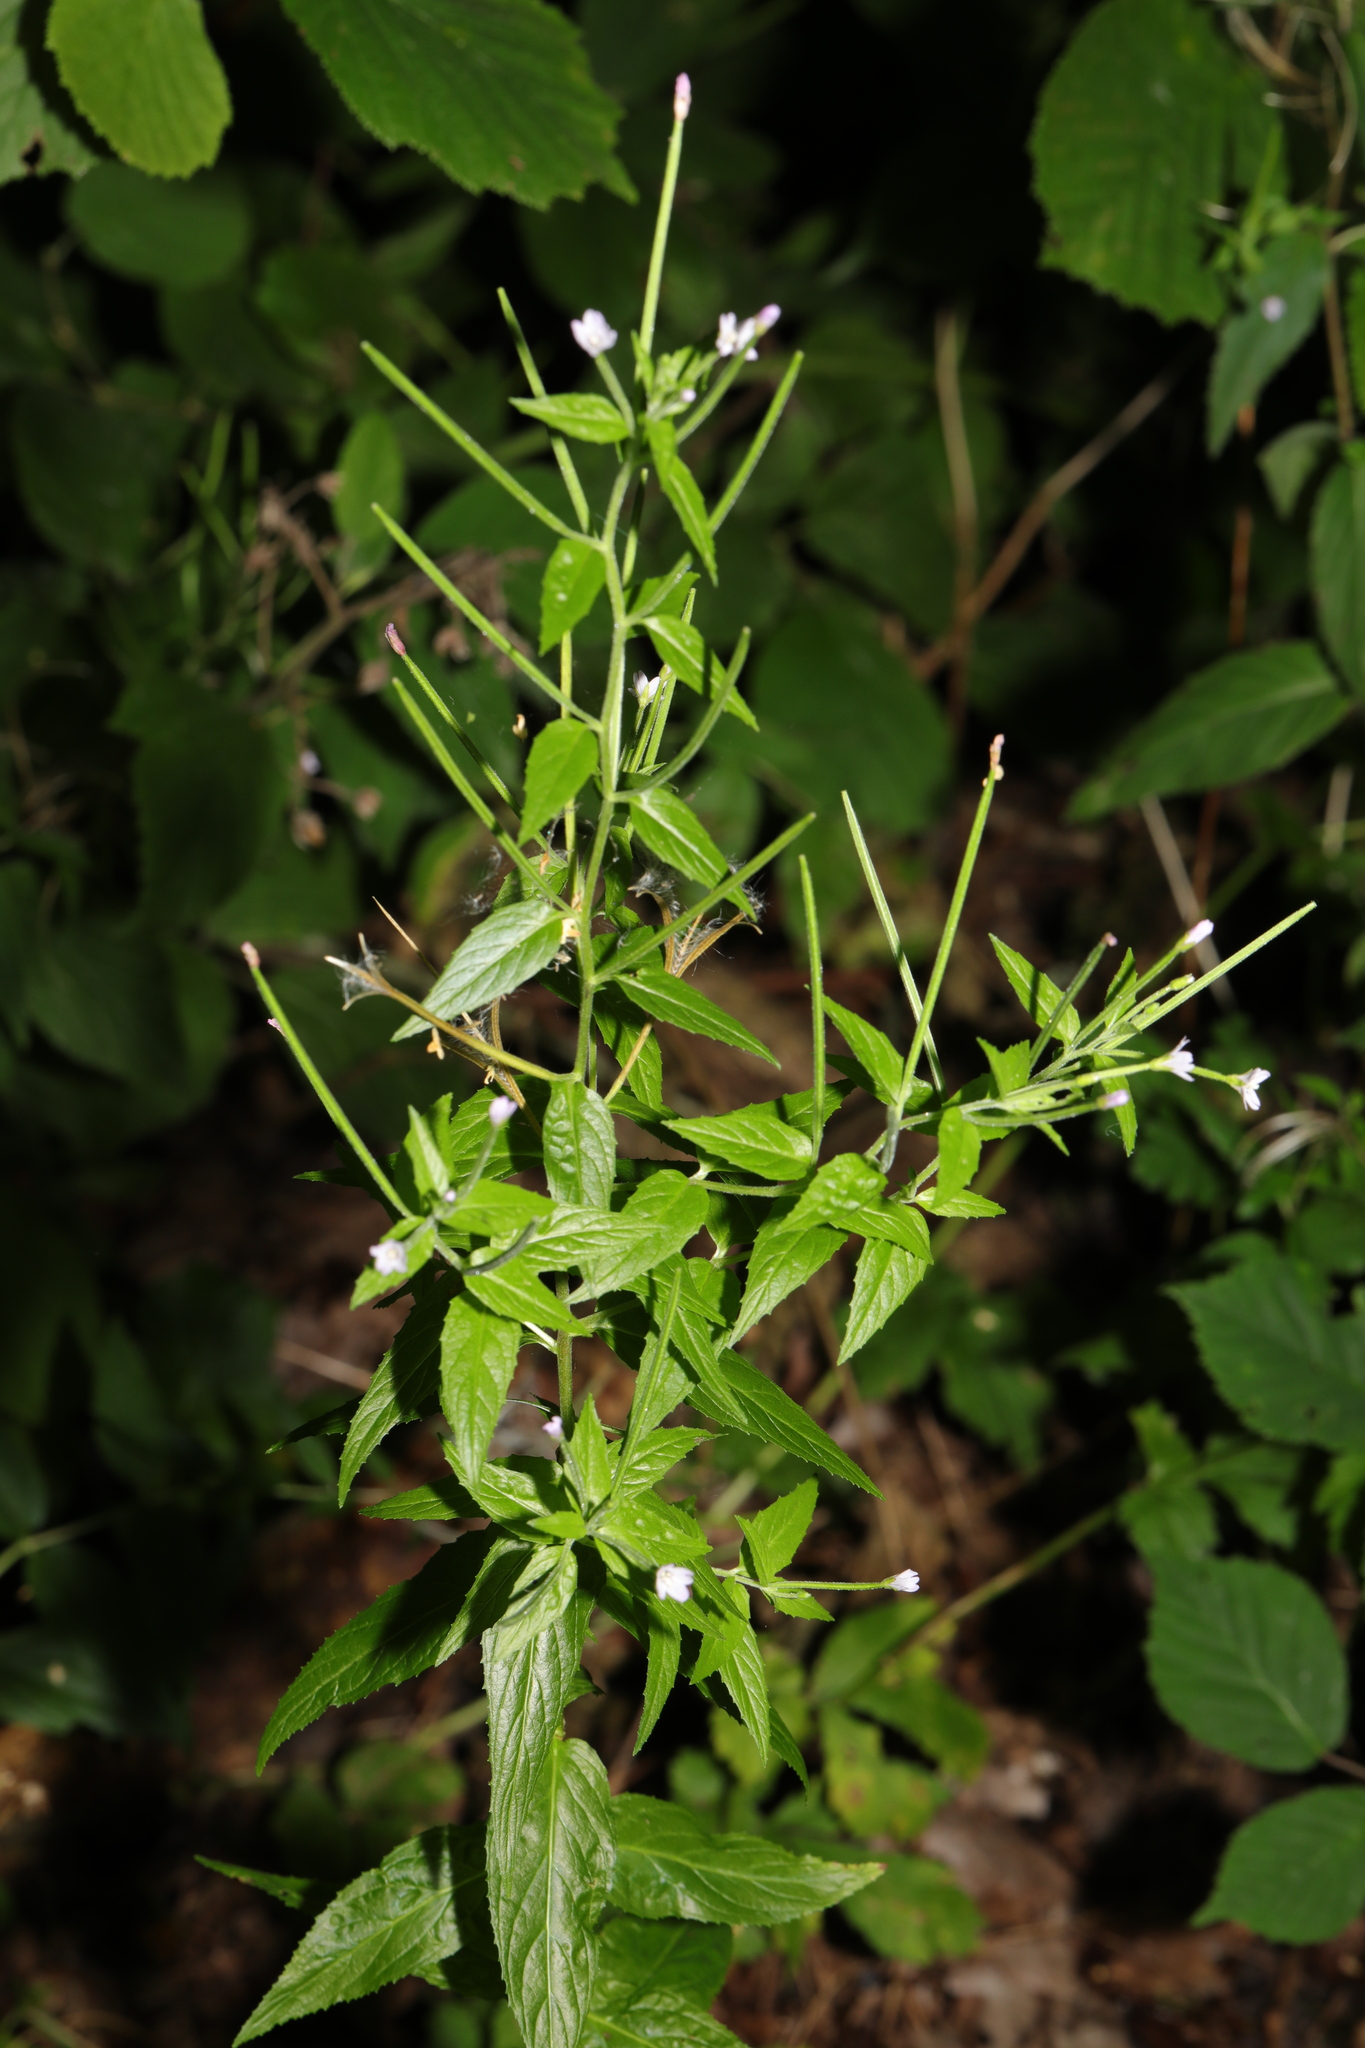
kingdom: Plantae
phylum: Tracheophyta
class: Magnoliopsida
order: Myrtales
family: Onagraceae
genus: Epilobium
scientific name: Epilobium montanum
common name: Broad-leaved willowherb
